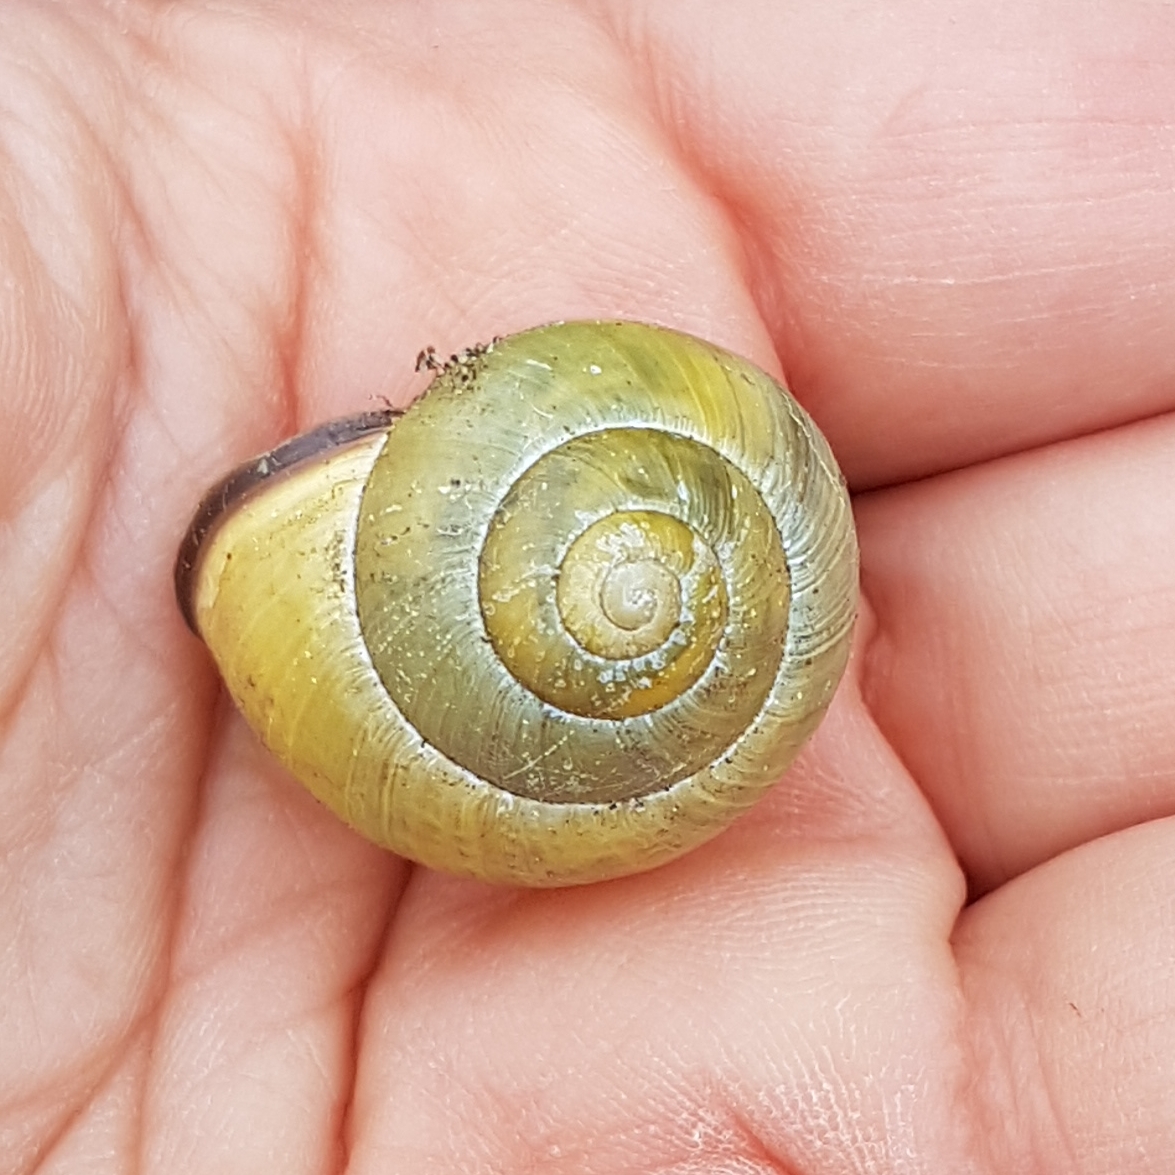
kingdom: Animalia
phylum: Mollusca
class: Gastropoda
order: Stylommatophora
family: Helicidae
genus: Cepaea
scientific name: Cepaea nemoralis
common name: Grovesnail
